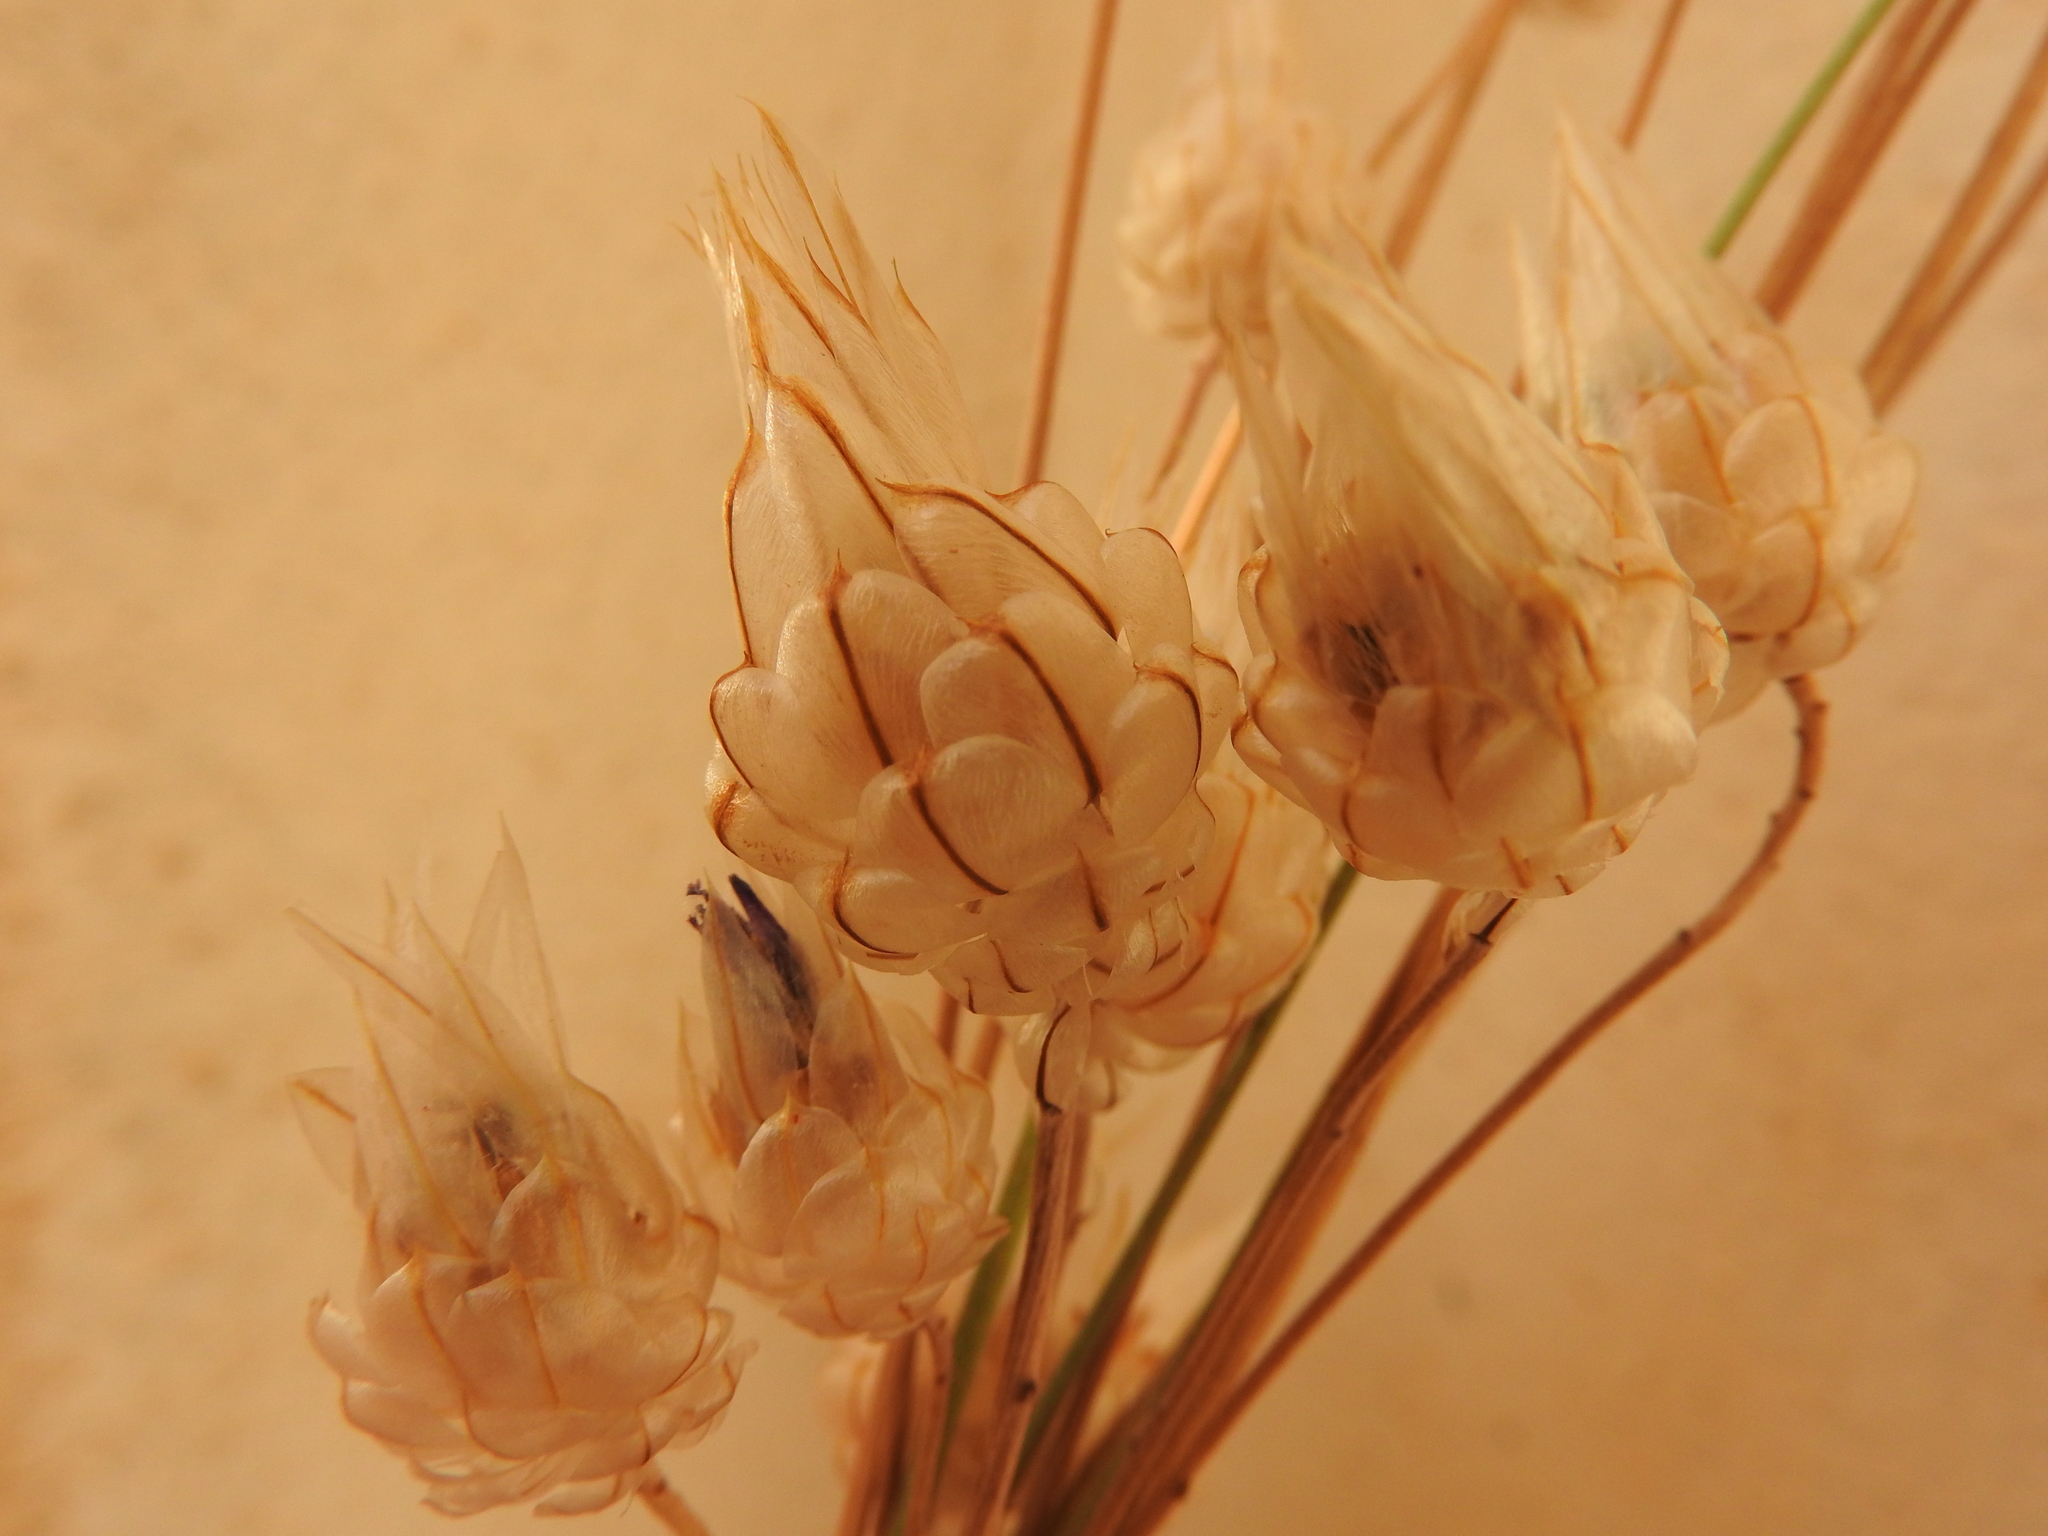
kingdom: Plantae
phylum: Tracheophyta
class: Magnoliopsida
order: Asterales
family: Asteraceae
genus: Catananche
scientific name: Catananche caerulea
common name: Blue cupidone
